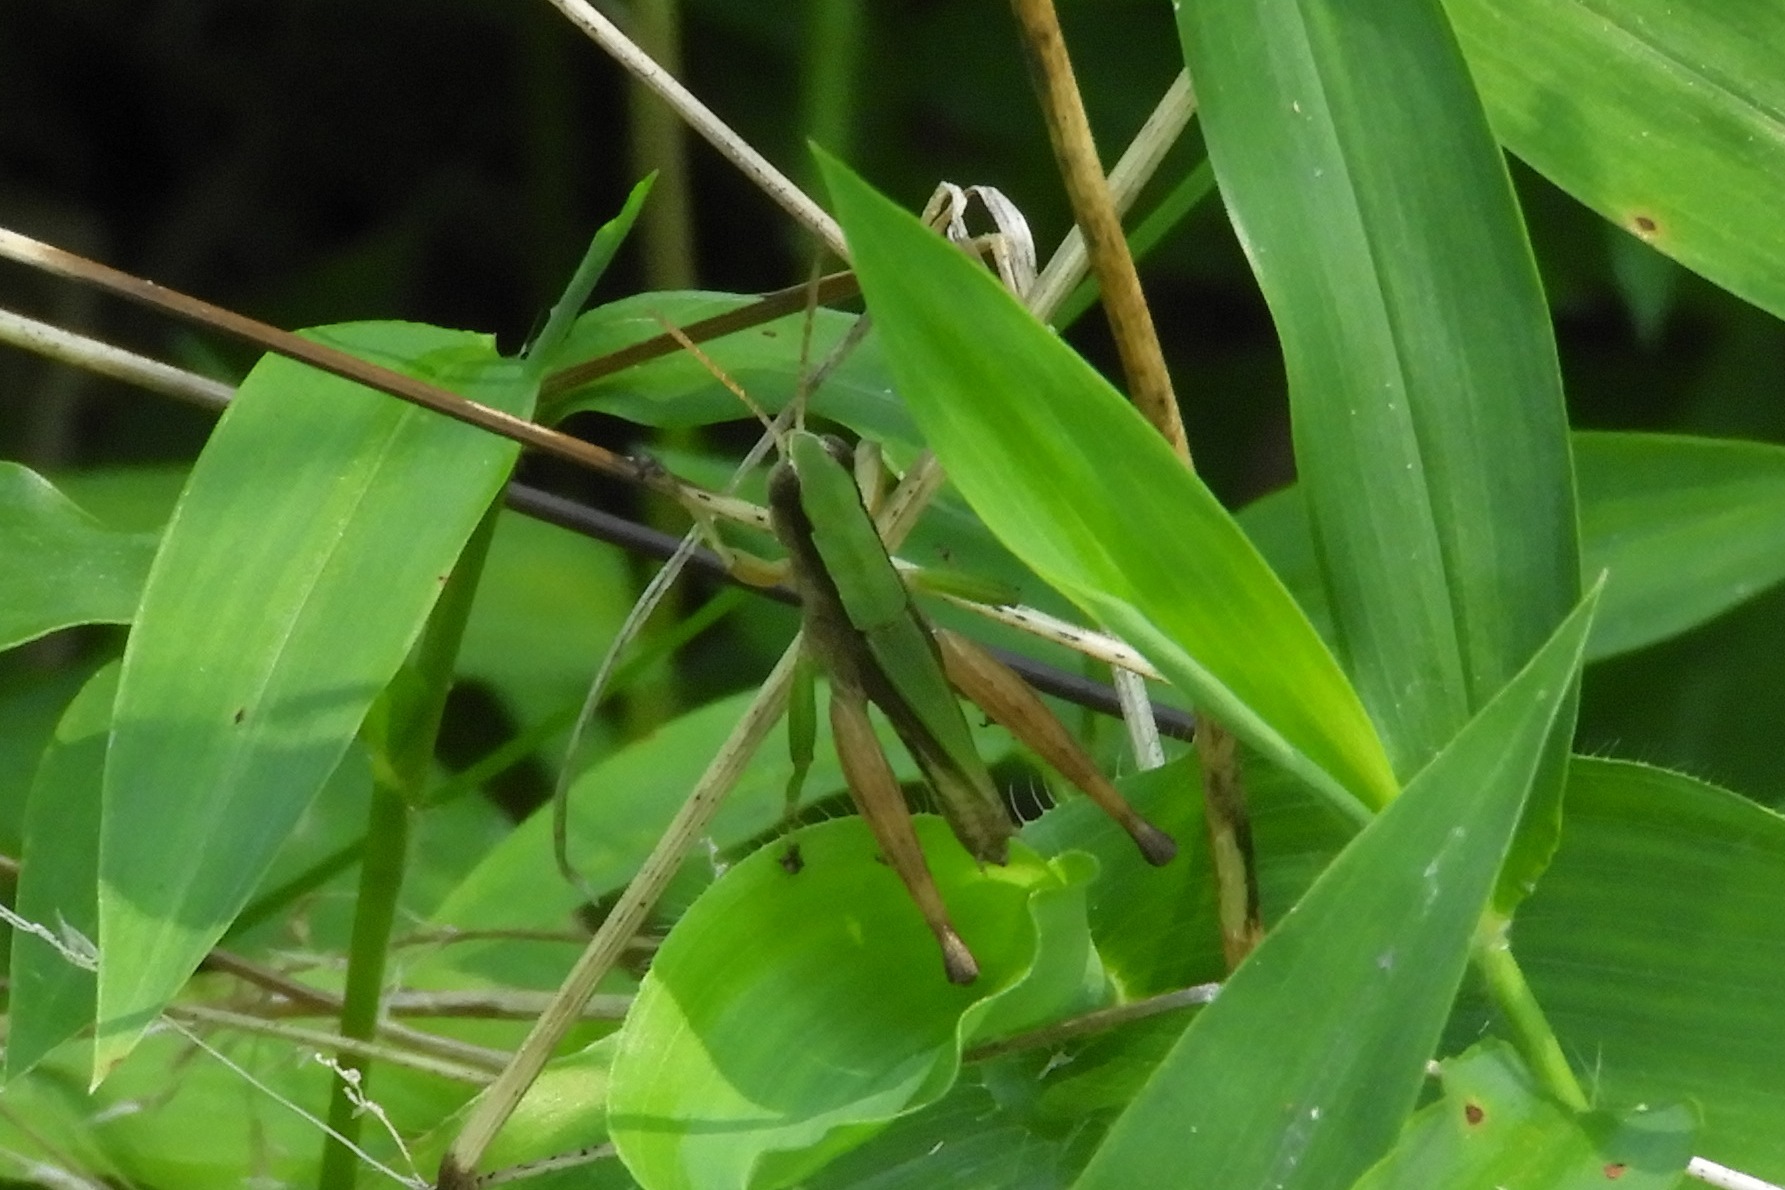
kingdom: Animalia
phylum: Arthropoda
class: Insecta
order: Orthoptera
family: Acrididae
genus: Dichromorpha
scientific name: Dichromorpha viridis
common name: Short-winged green grasshopper
